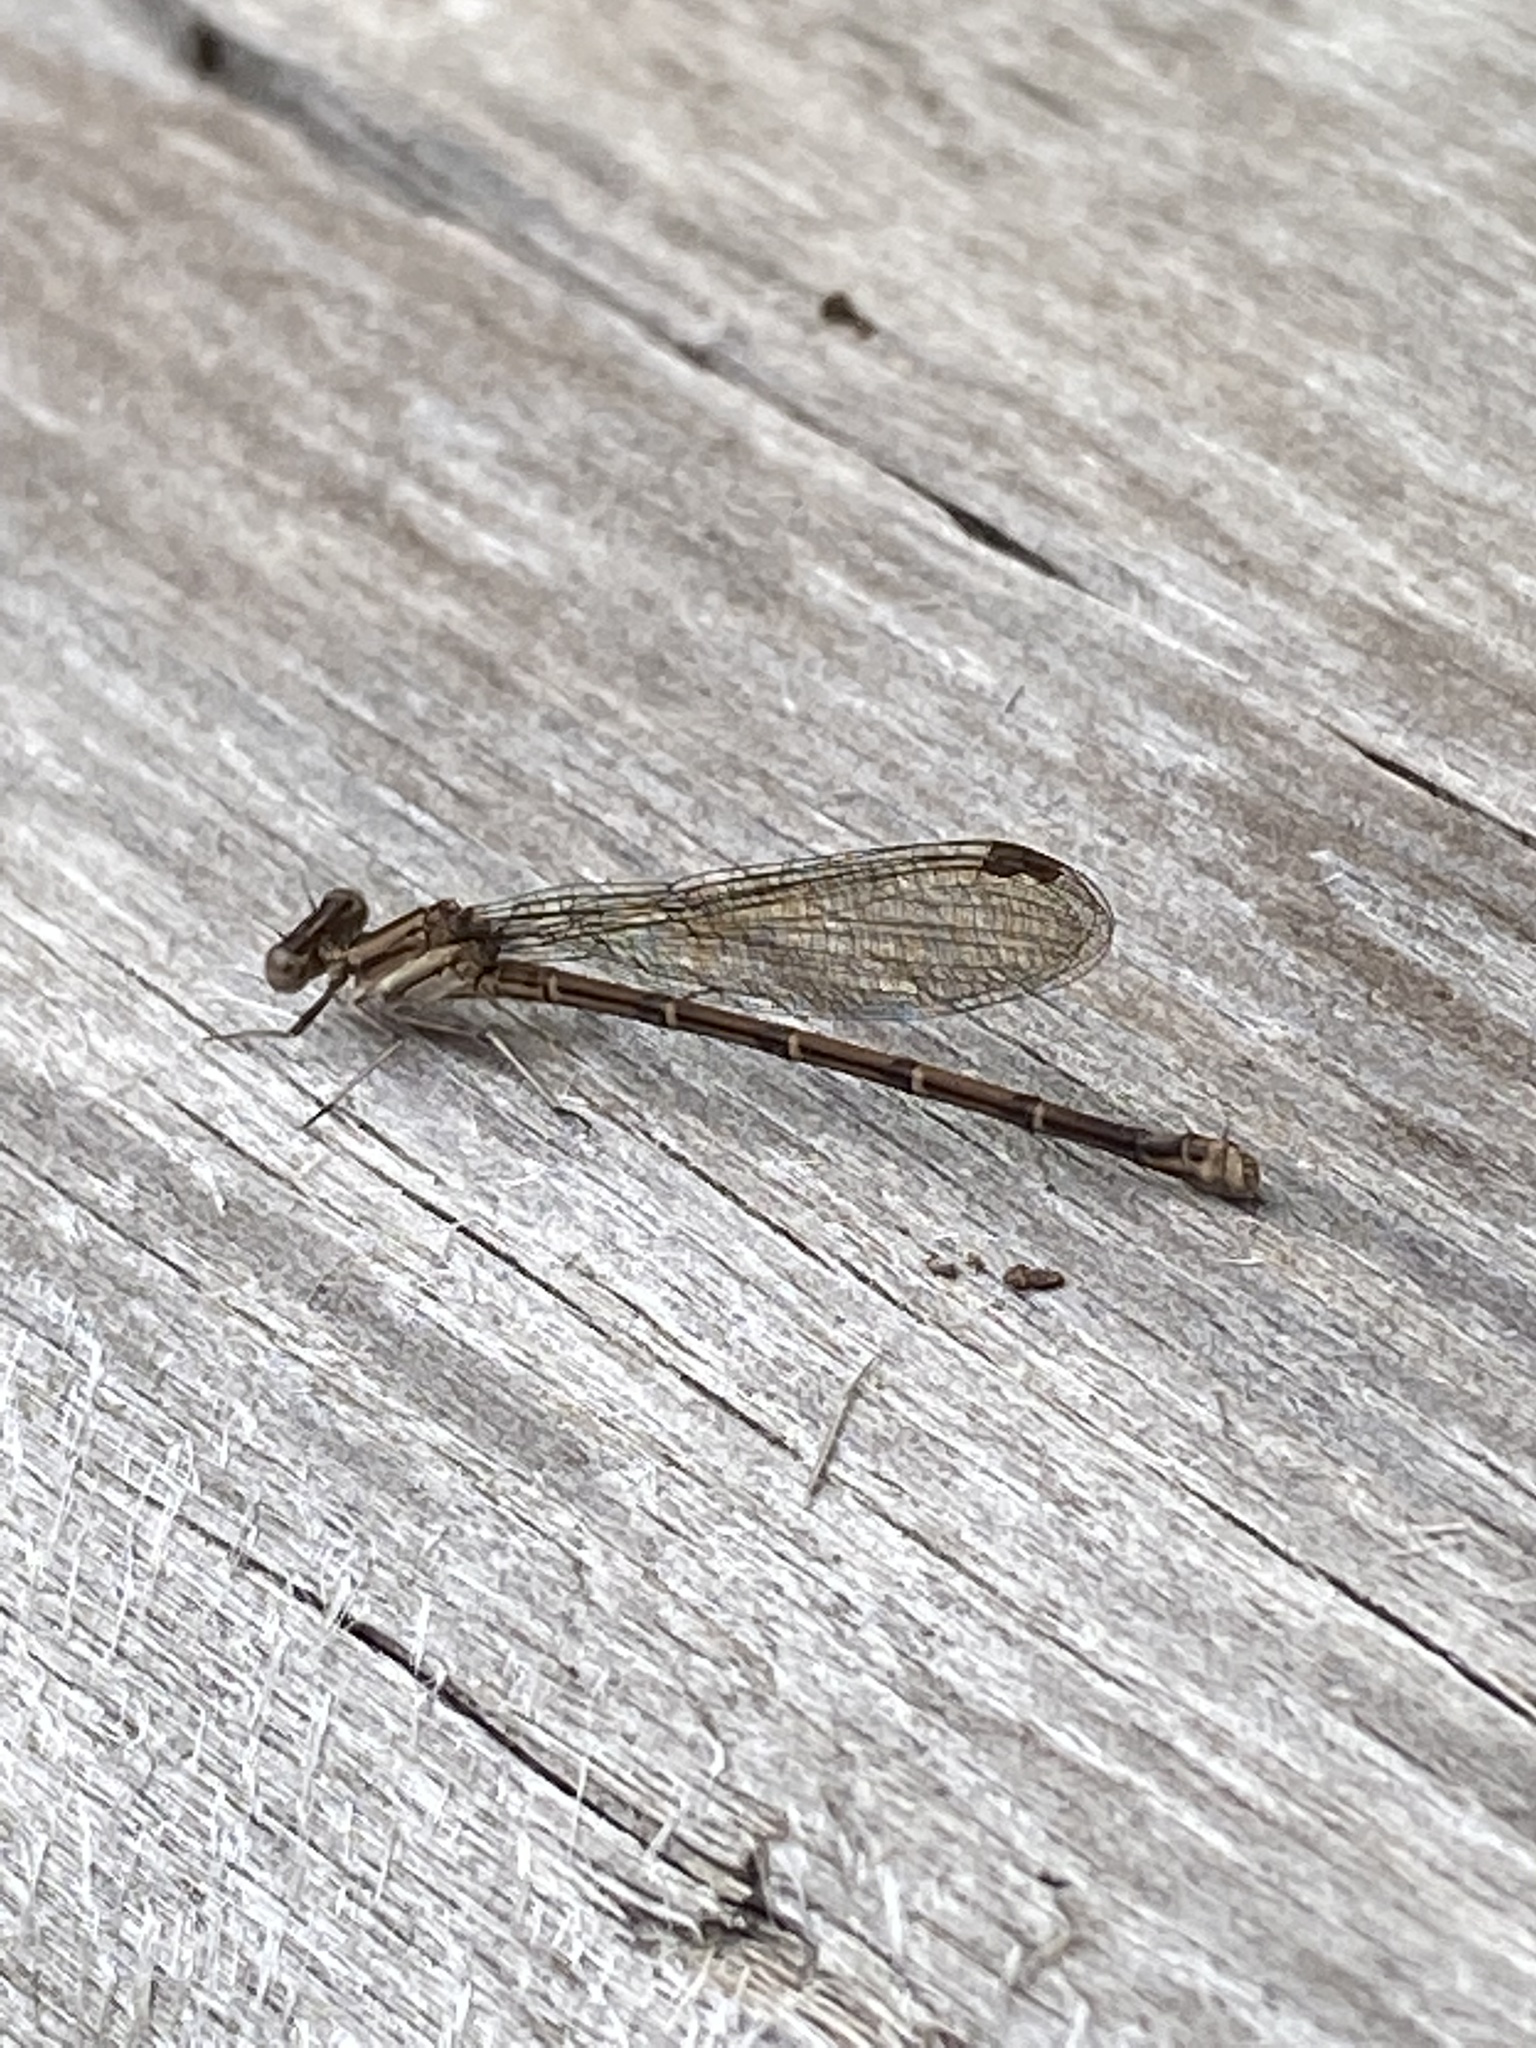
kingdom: Animalia
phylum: Arthropoda
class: Insecta
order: Odonata
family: Coenagrionidae
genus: Argia
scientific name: Argia fumipennis
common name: Variable dancer
